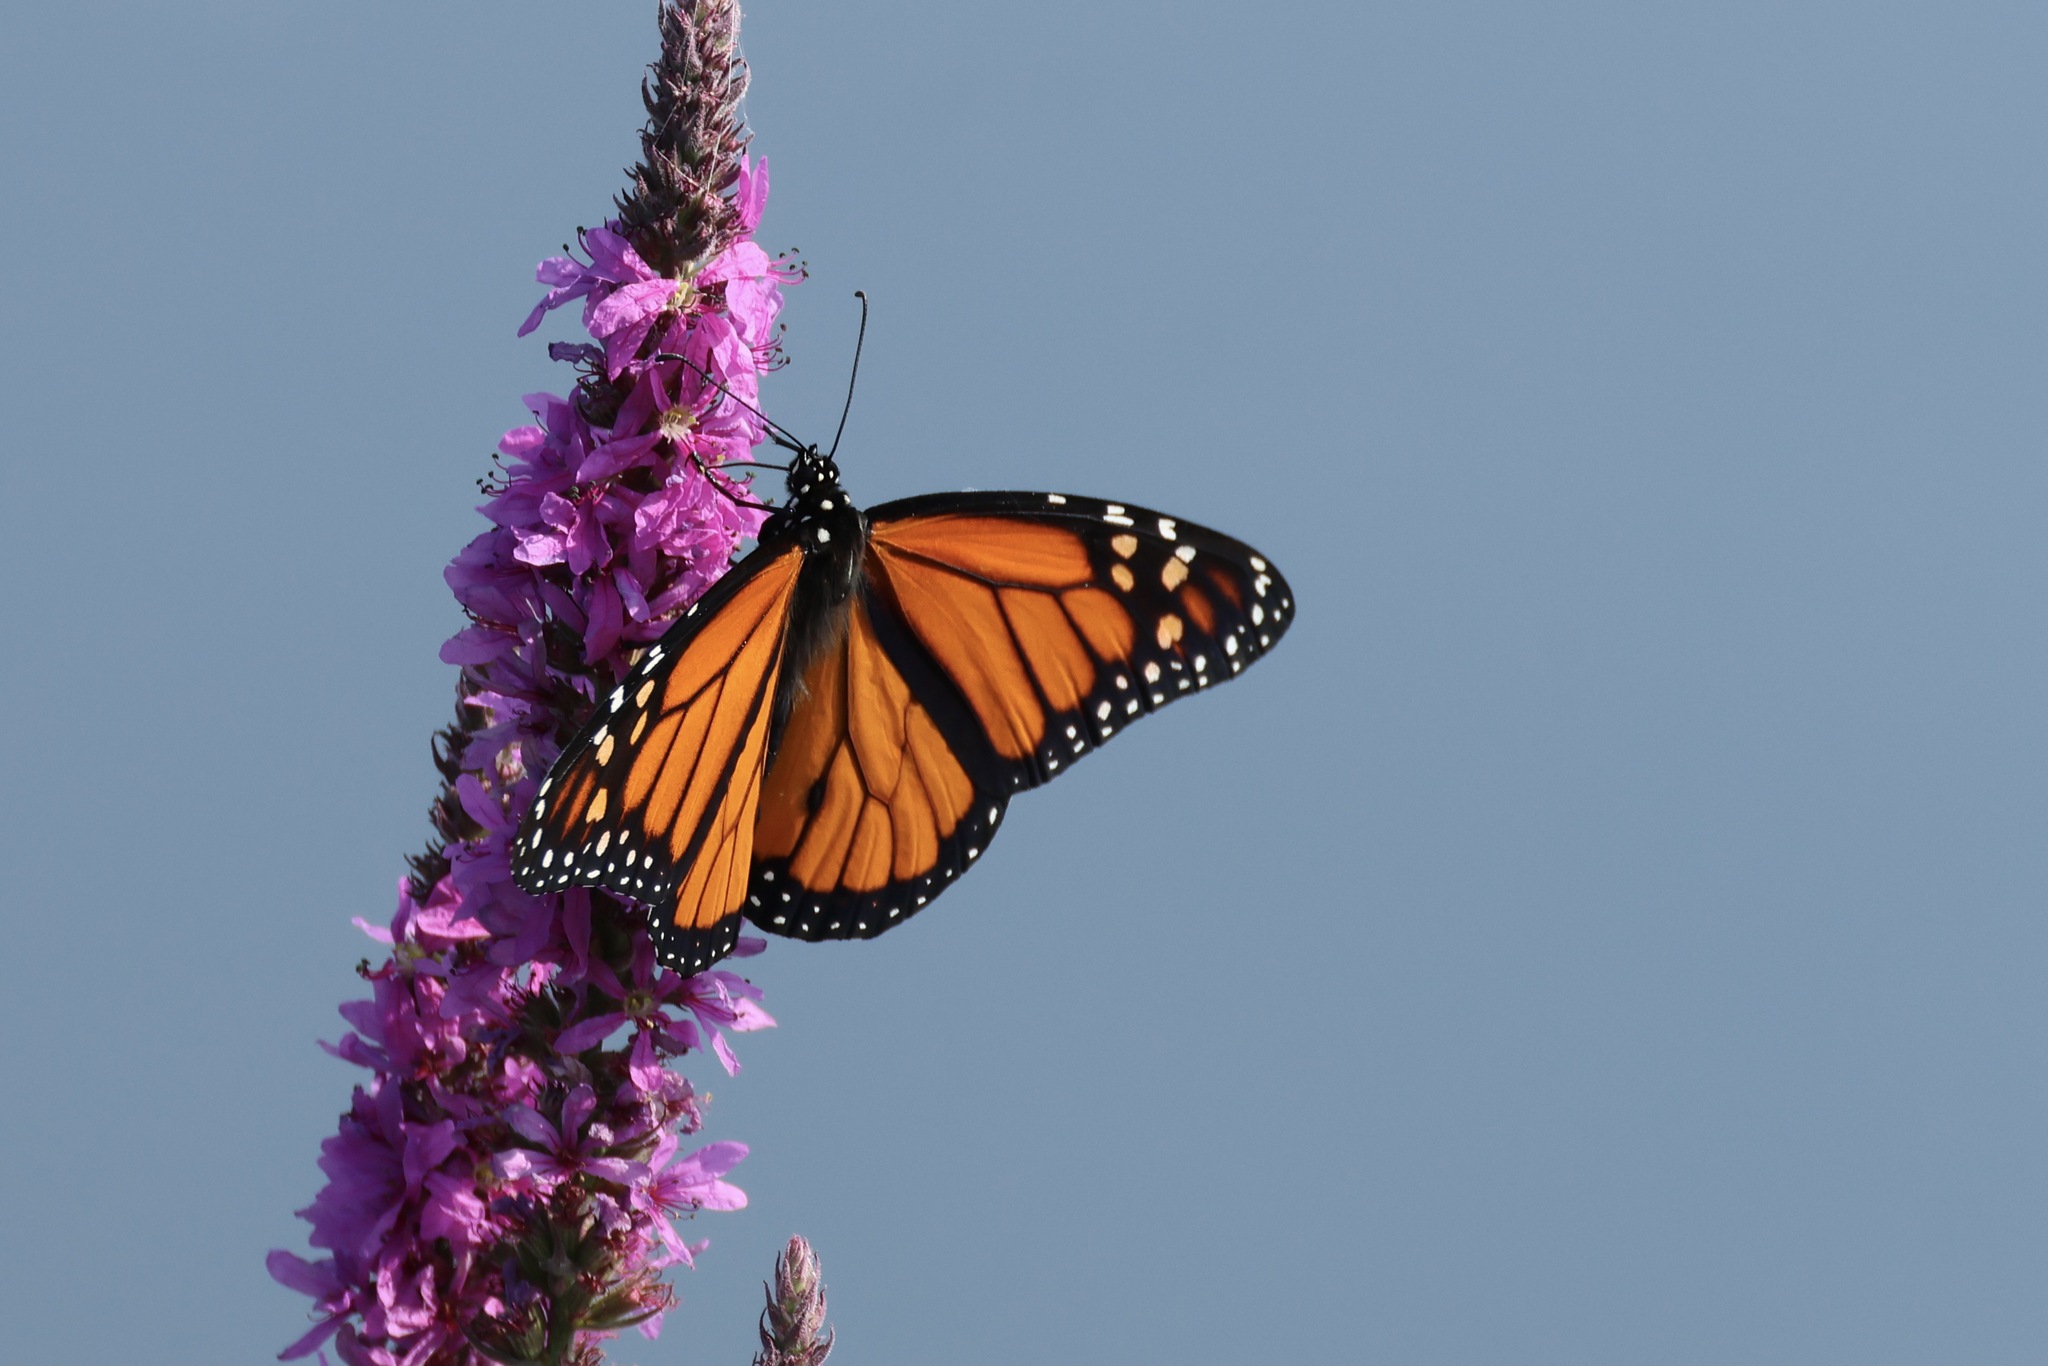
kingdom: Animalia
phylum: Arthropoda
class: Insecta
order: Lepidoptera
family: Nymphalidae
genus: Danaus
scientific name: Danaus plexippus
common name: Monarch
